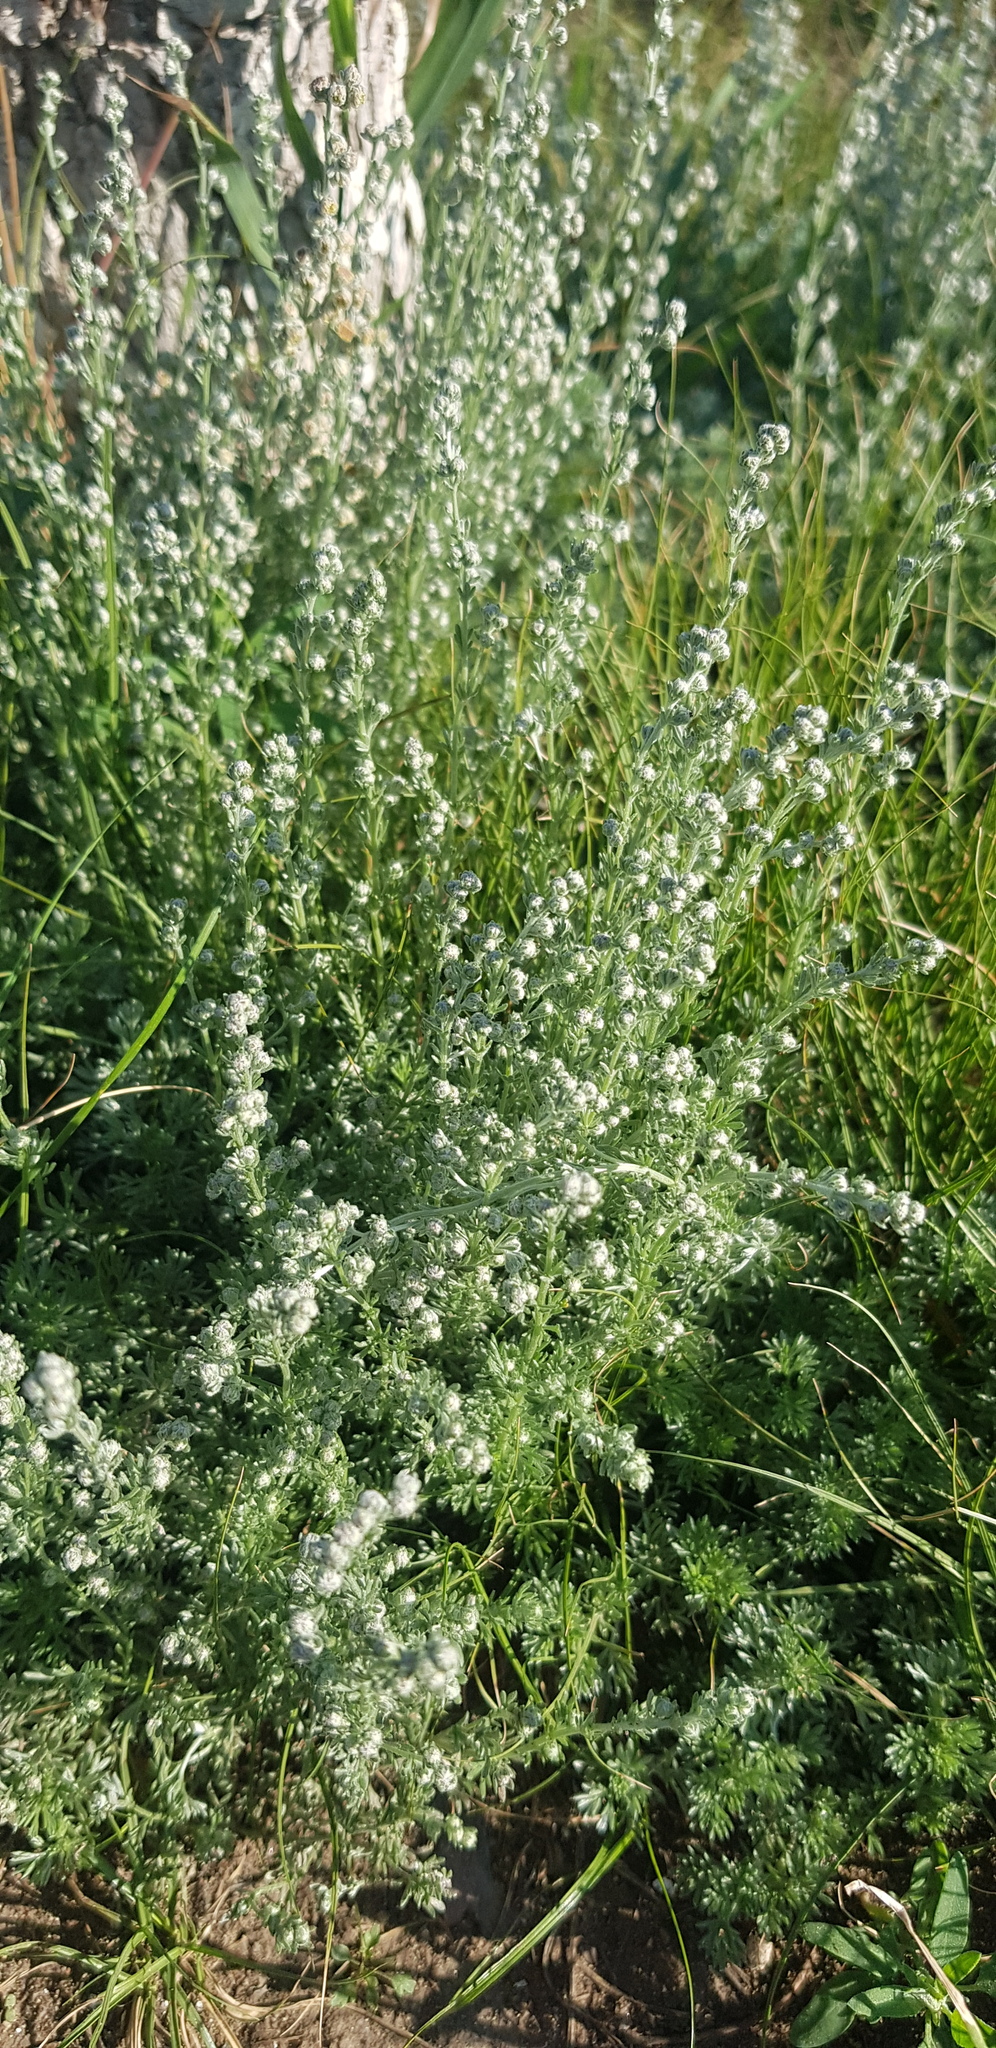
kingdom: Plantae
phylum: Tracheophyta
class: Magnoliopsida
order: Asterales
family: Asteraceae
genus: Artemisia
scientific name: Artemisia frigida
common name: Prairie sagewort
